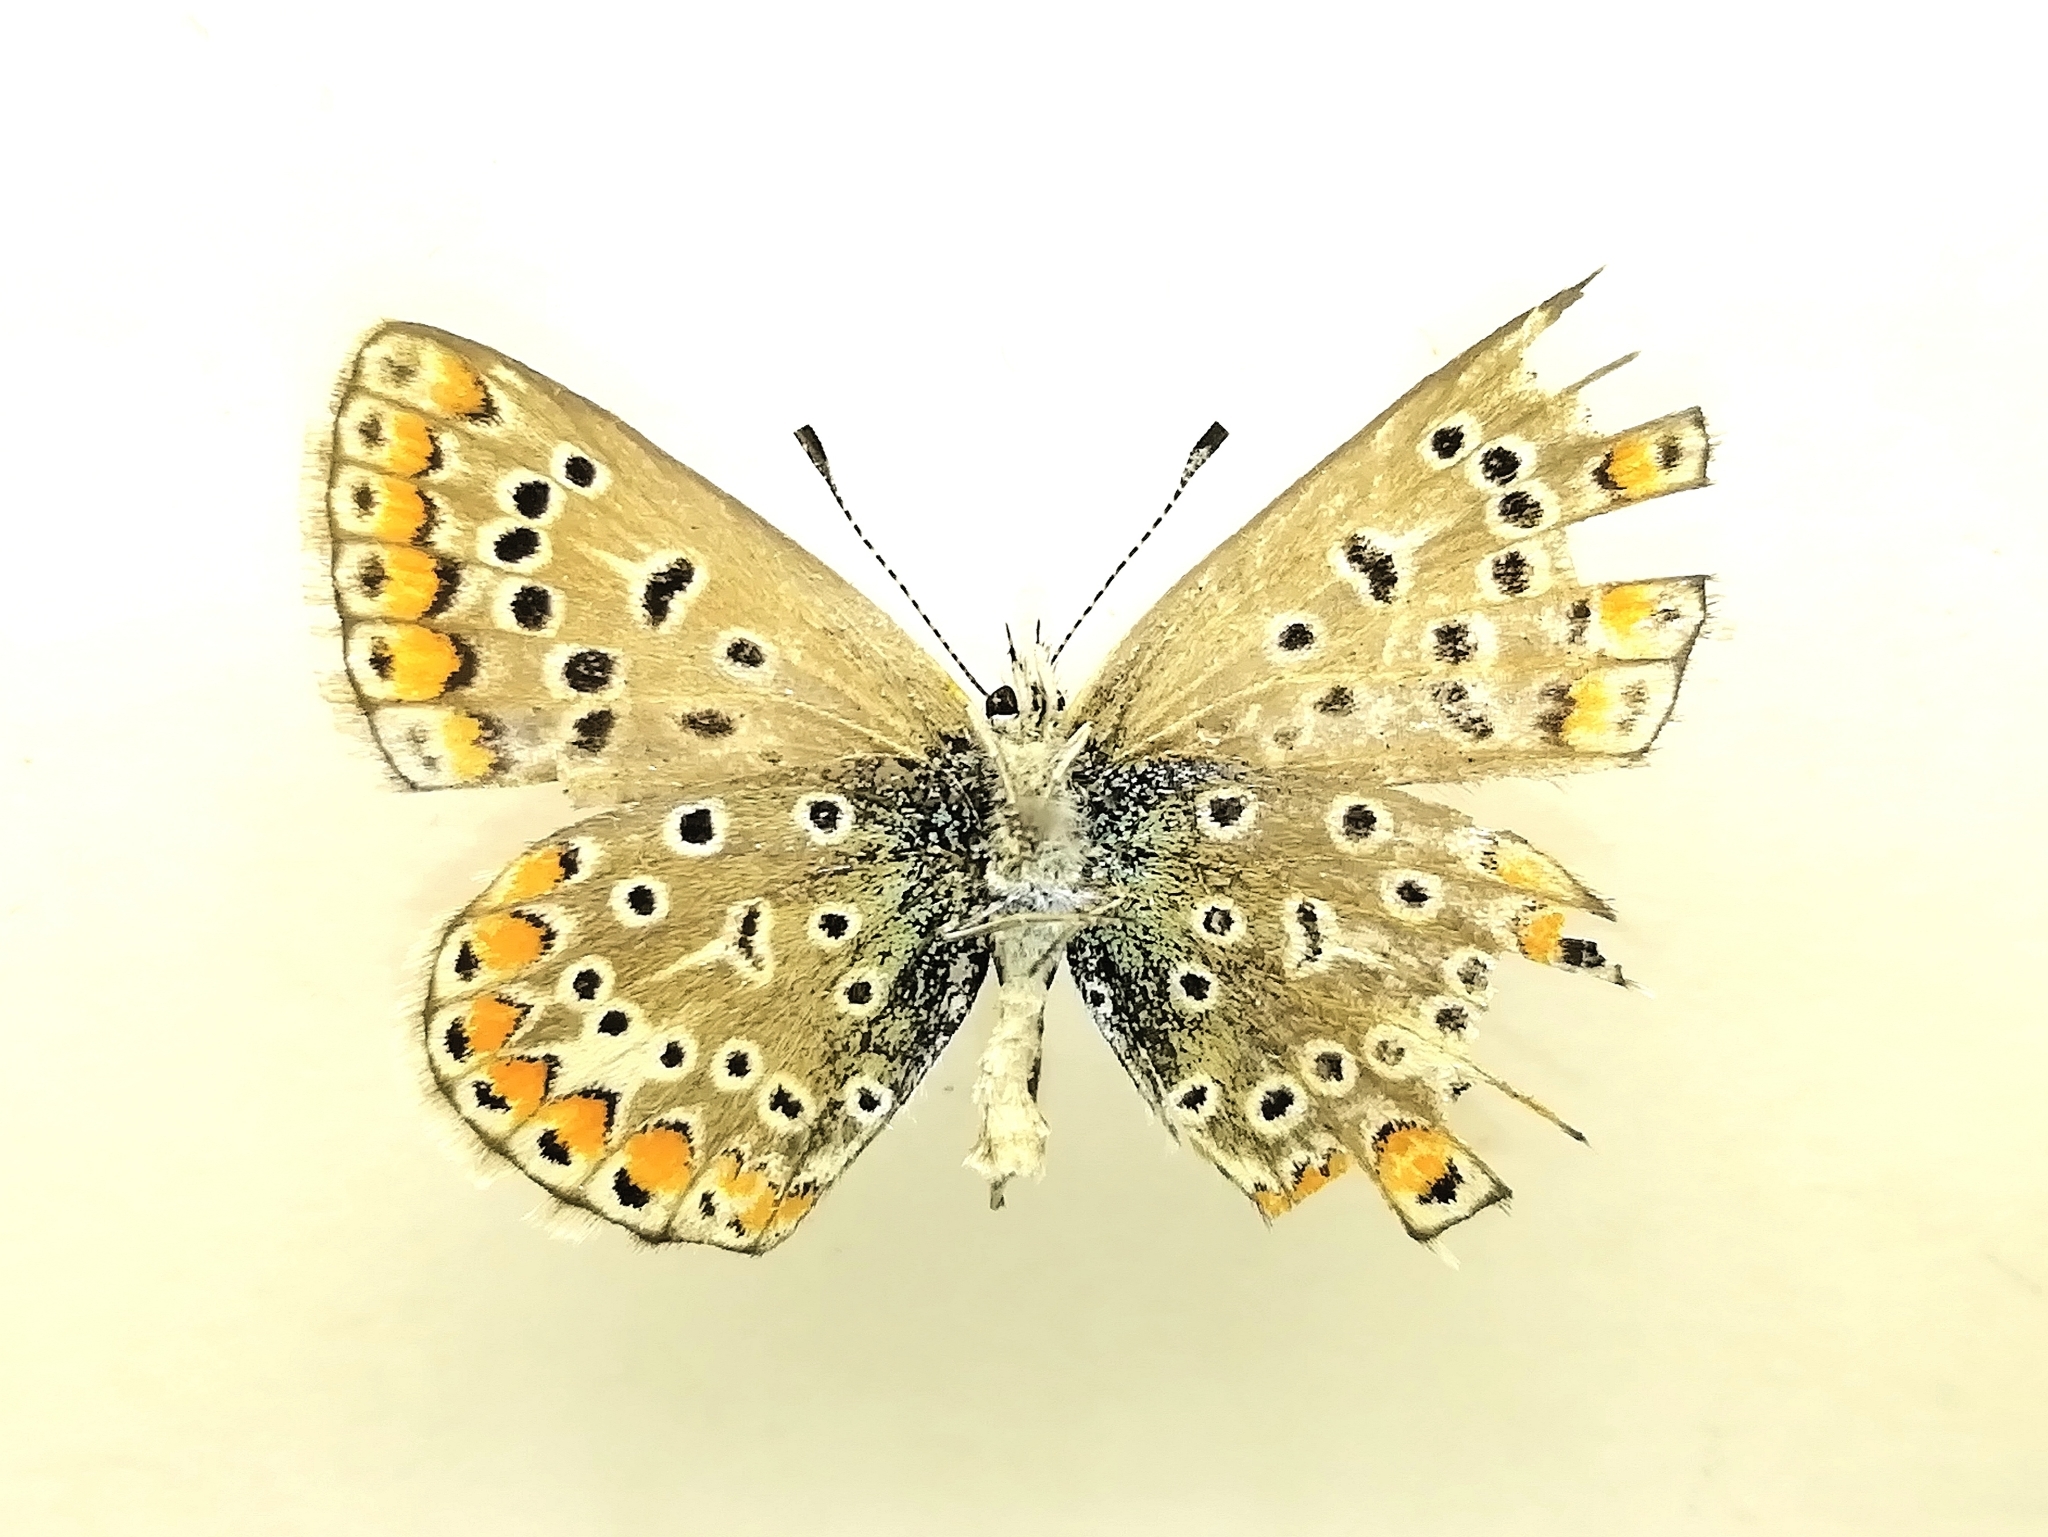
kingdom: Animalia
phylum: Arthropoda
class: Insecta
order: Lepidoptera
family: Lycaenidae
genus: Polyommatus
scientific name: Polyommatus icarus
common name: Common blue
